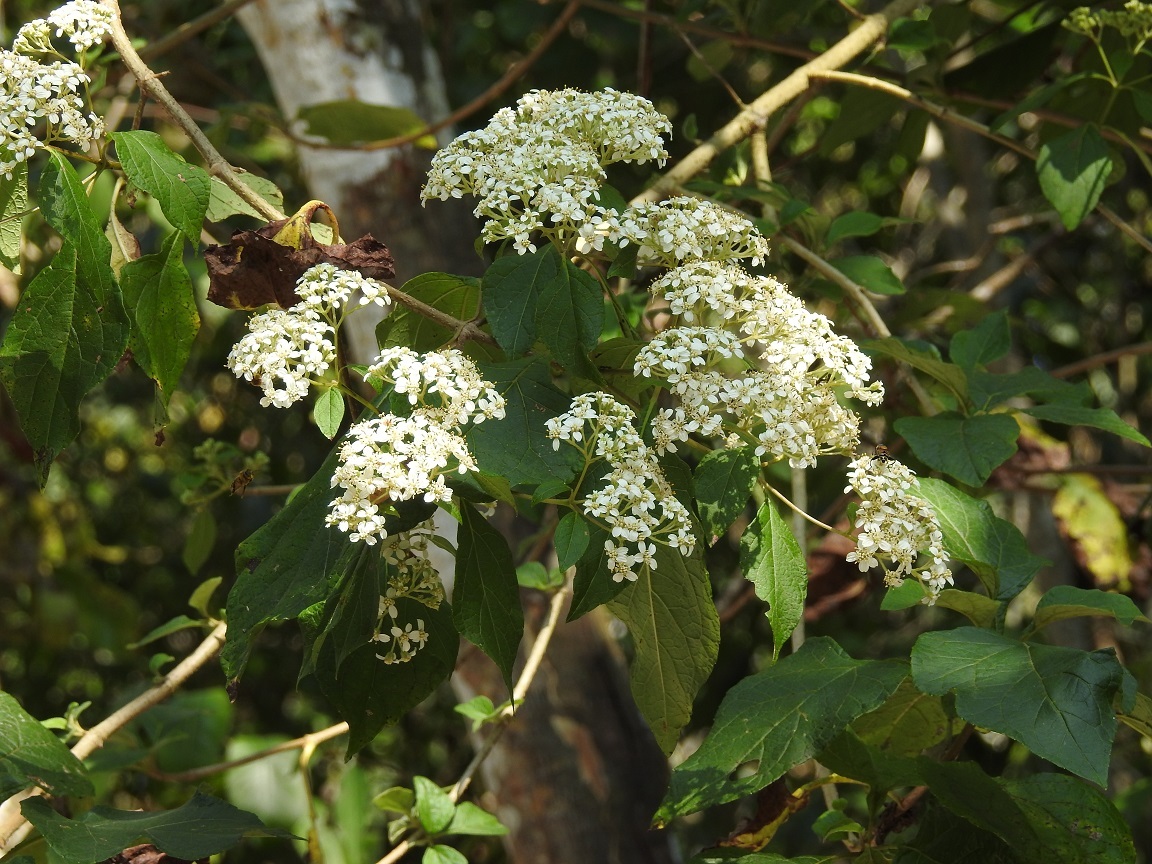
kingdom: Plantae
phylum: Tracheophyta
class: Magnoliopsida
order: Asterales
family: Asteraceae
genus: Montanoa
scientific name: Montanoa tomentosa
